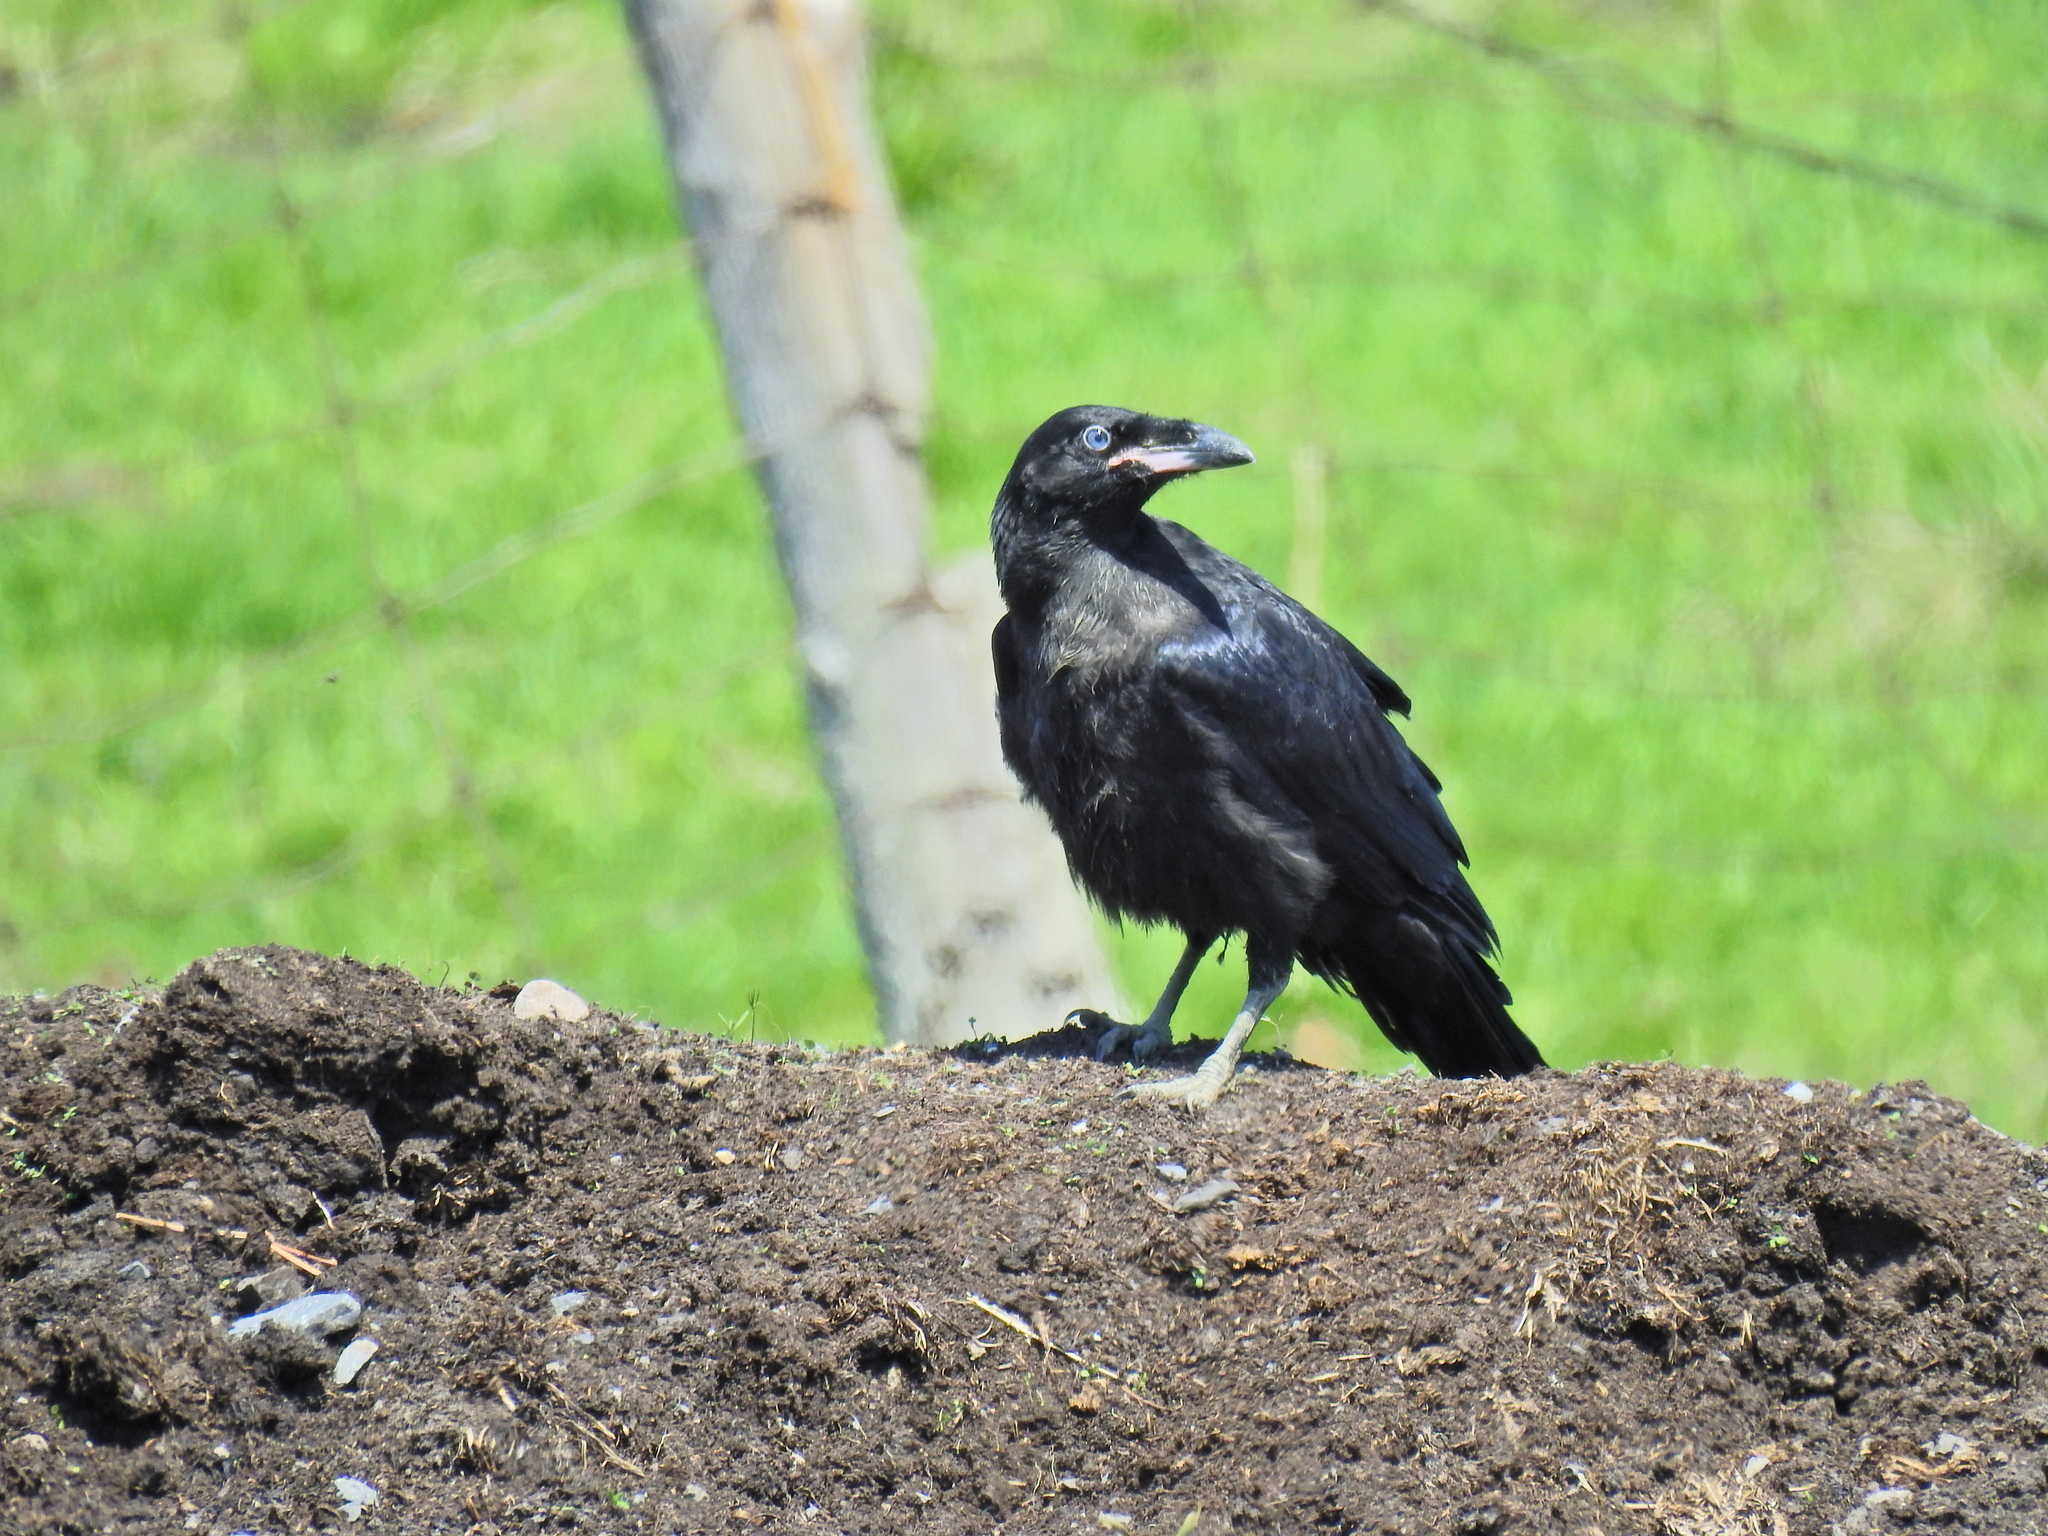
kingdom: Animalia
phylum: Chordata
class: Aves
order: Passeriformes
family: Corvidae
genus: Corvus
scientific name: Corvus corax
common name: Common raven
